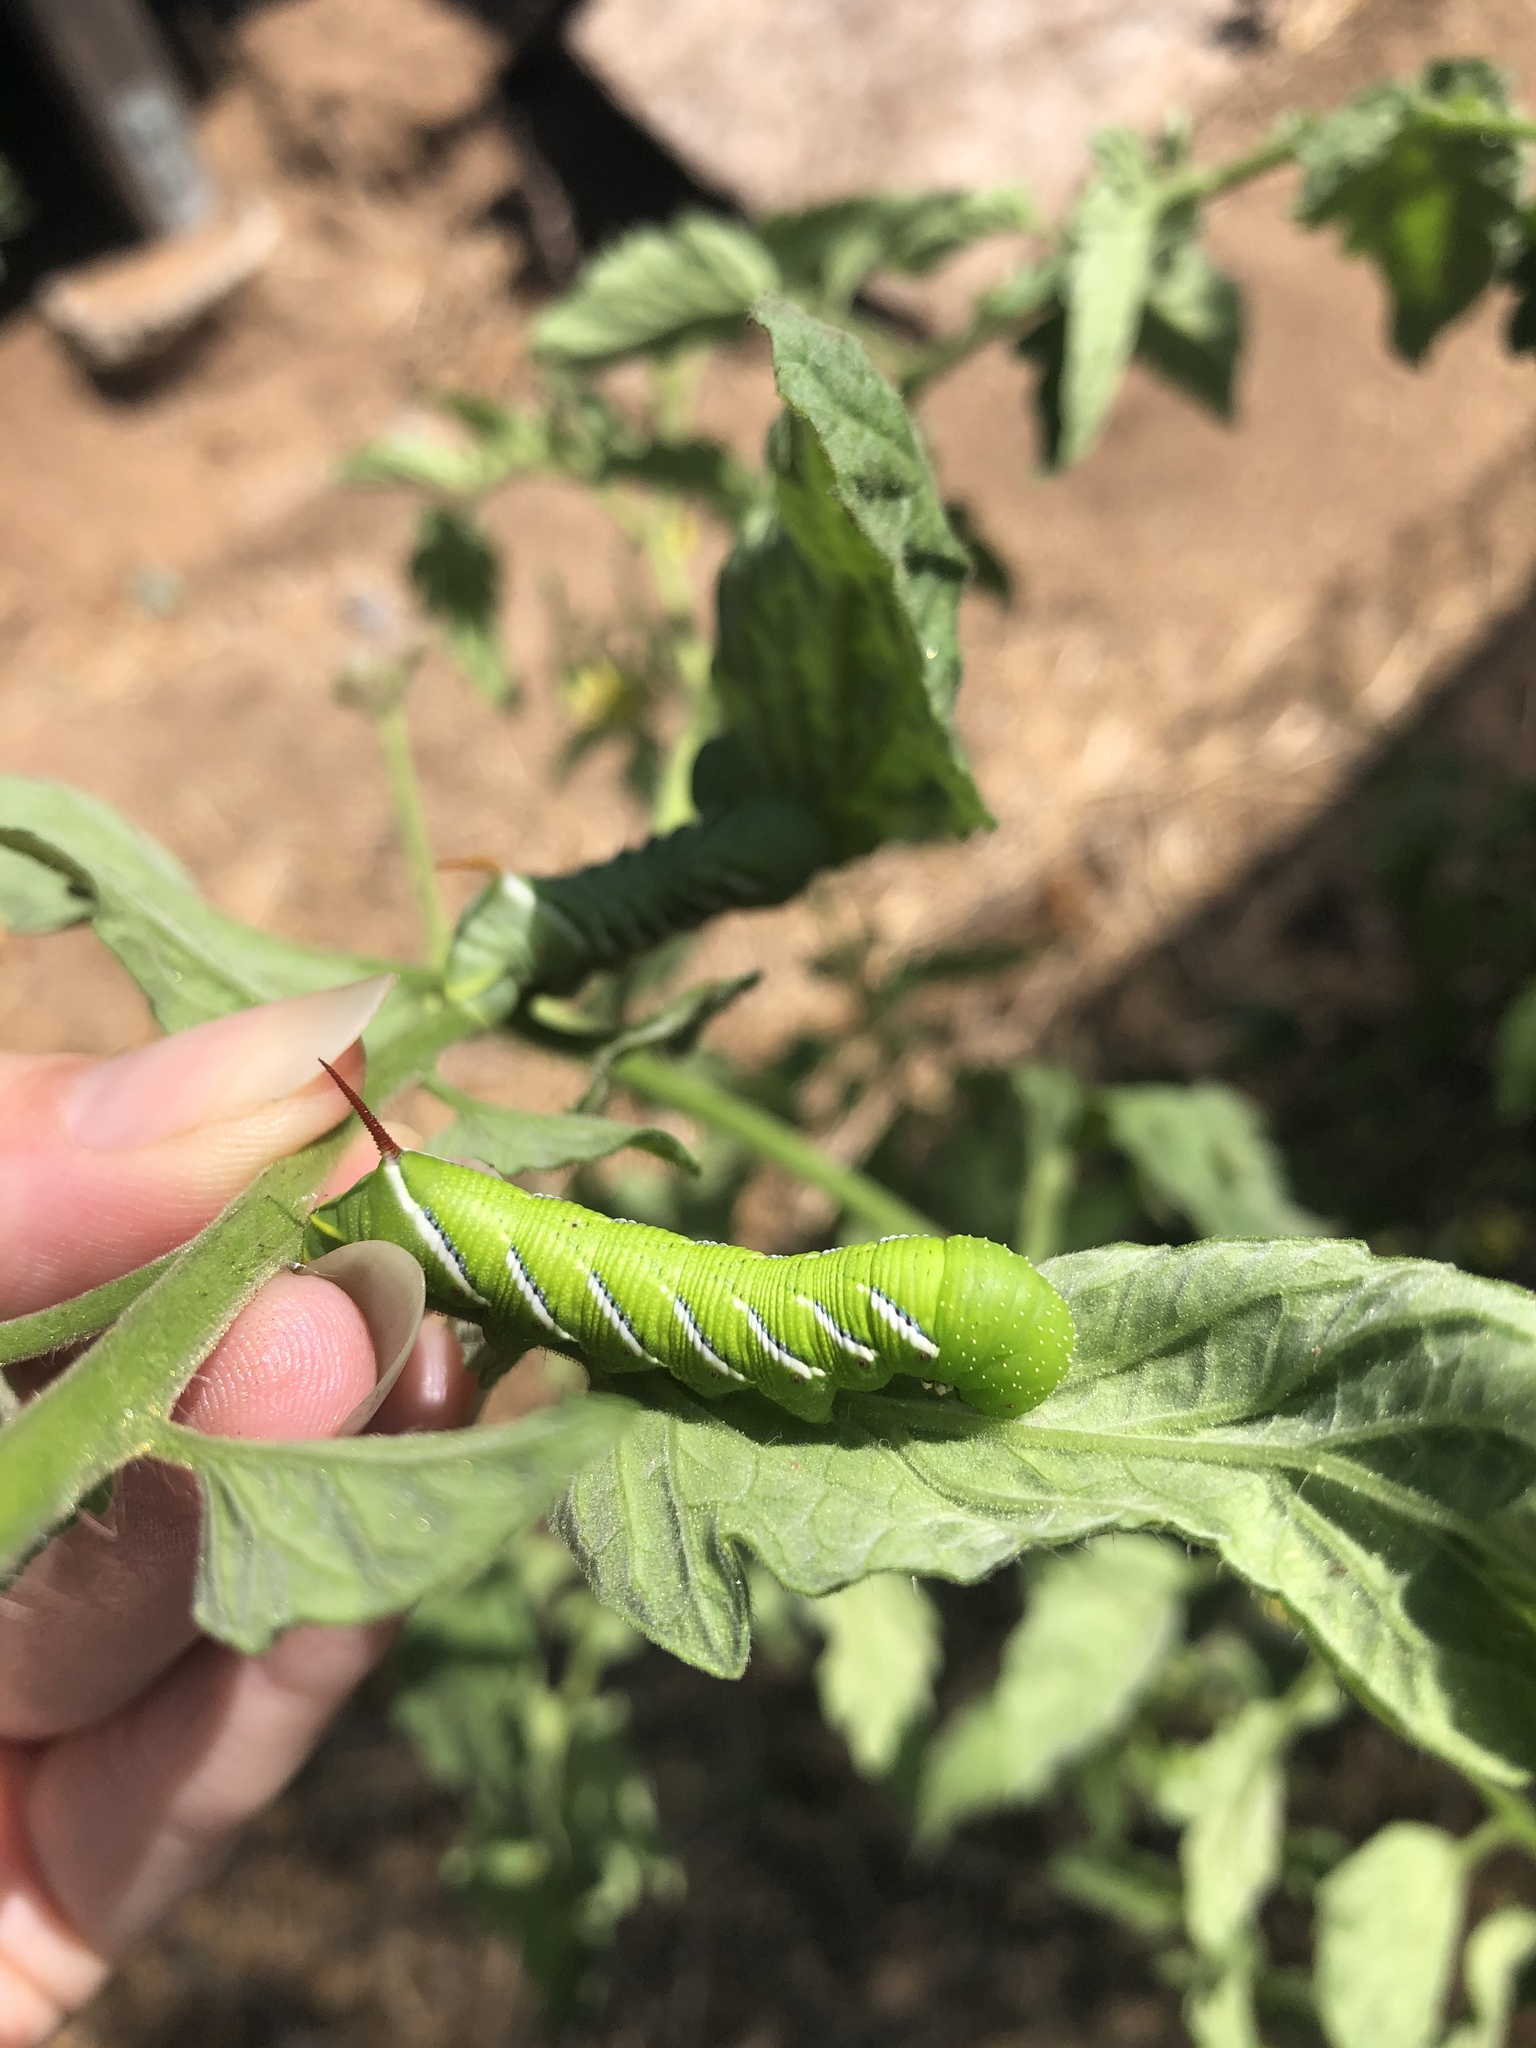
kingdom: Animalia
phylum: Arthropoda
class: Insecta
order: Lepidoptera
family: Sphingidae
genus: Manduca
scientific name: Manduca sexta
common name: Carolina sphinx
